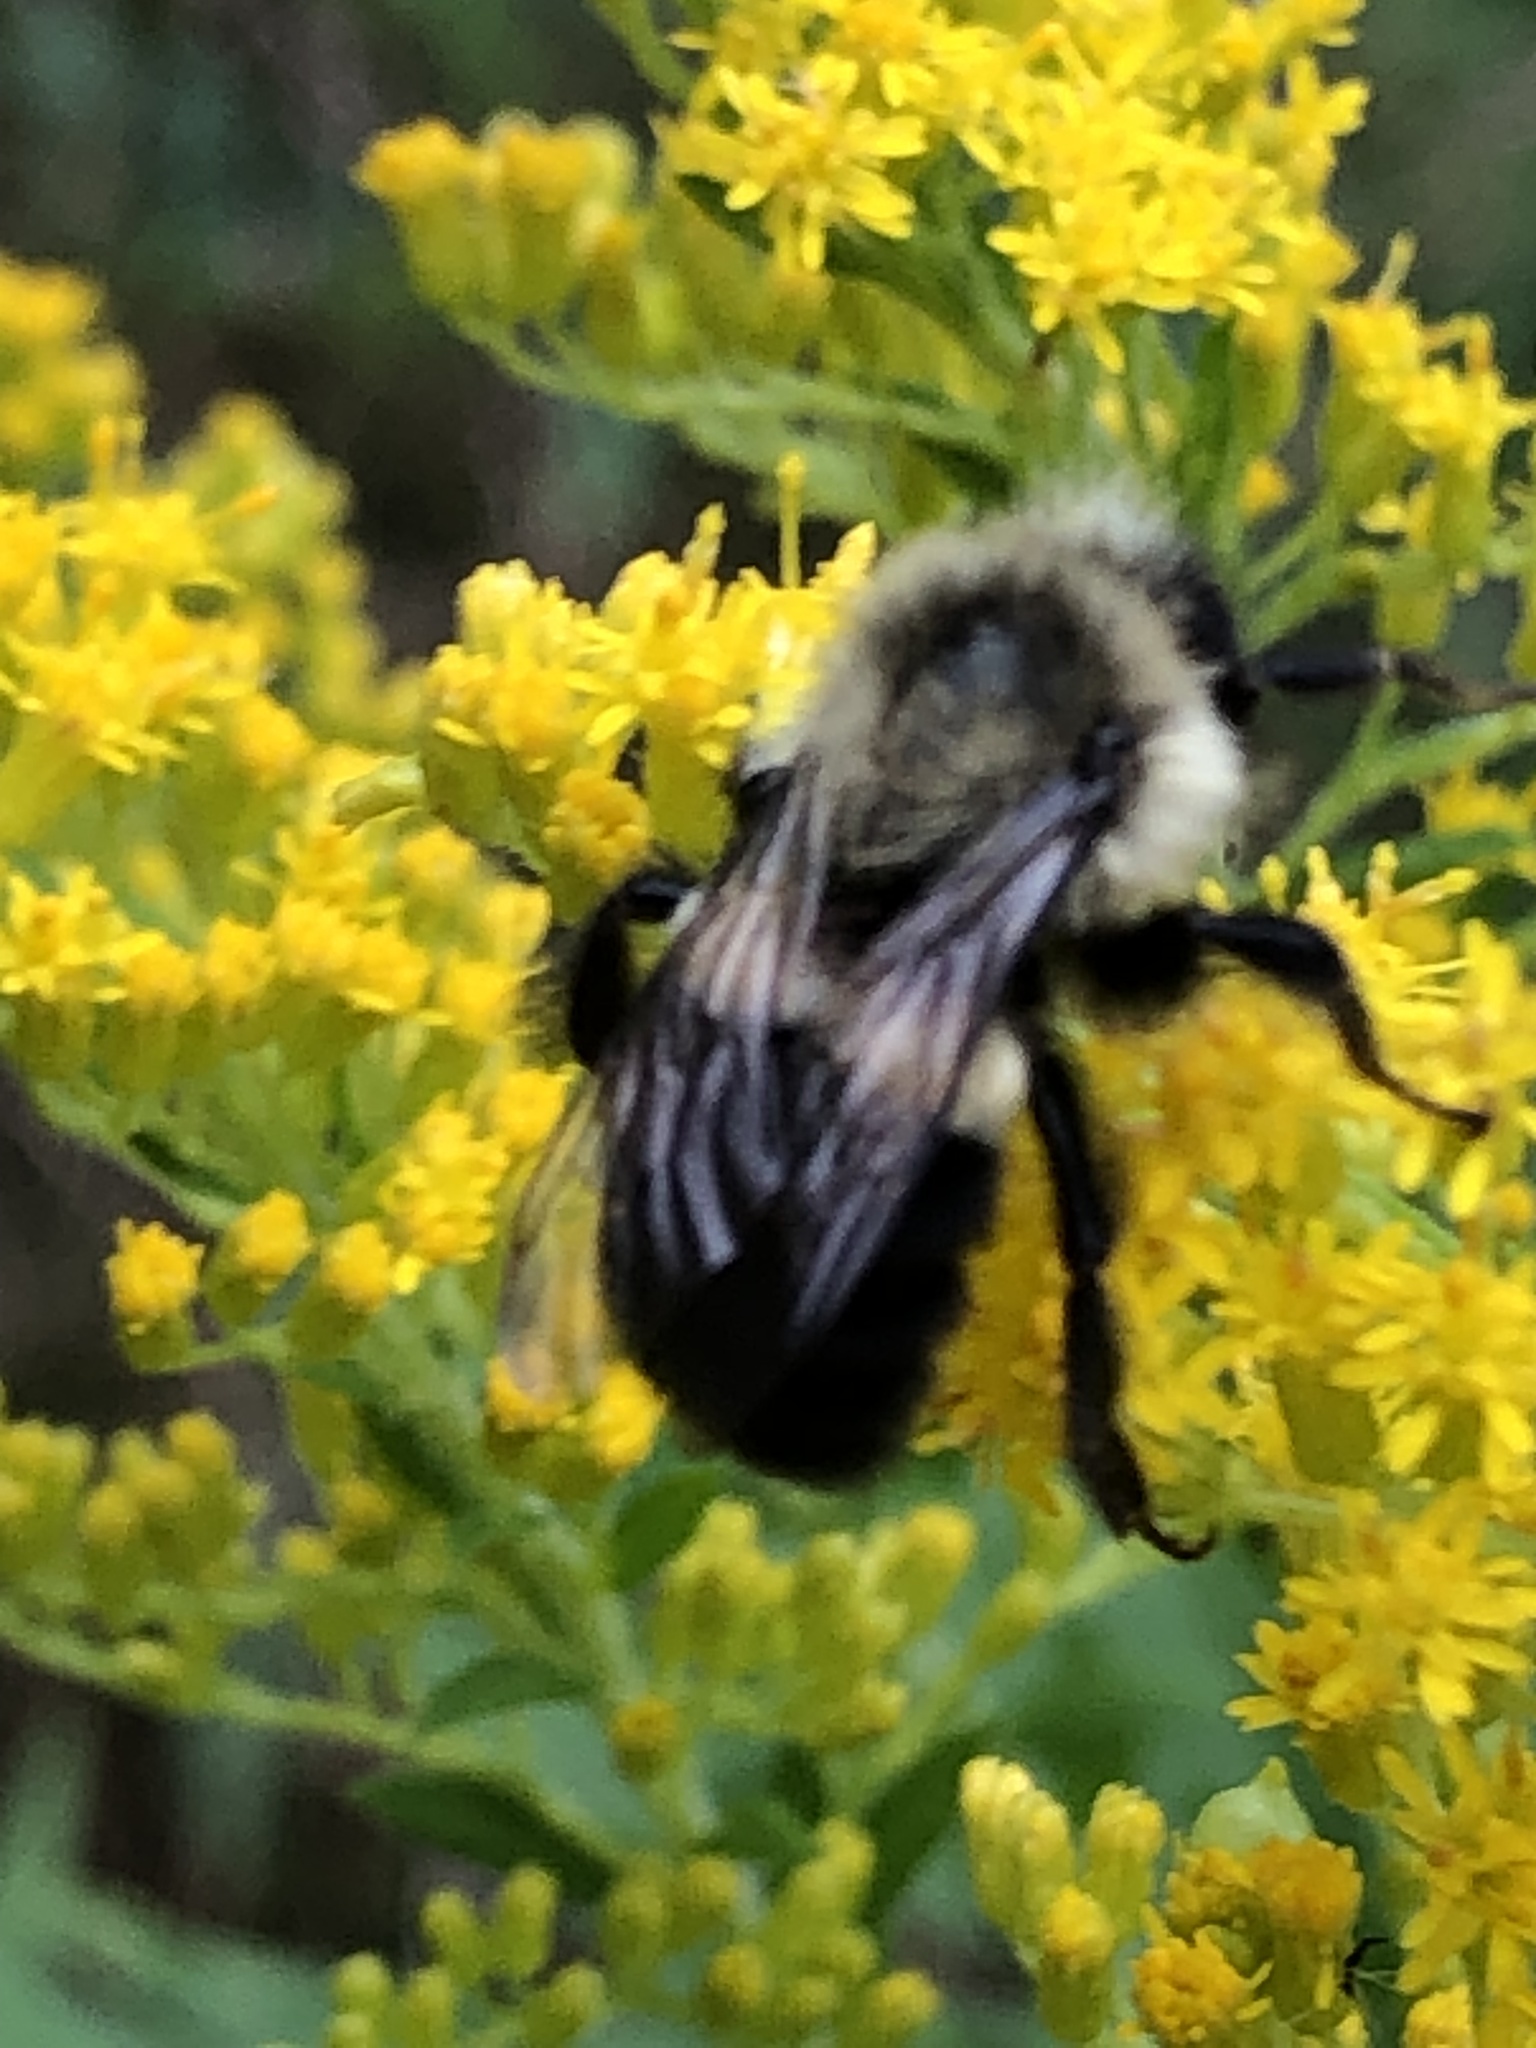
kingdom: Animalia
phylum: Arthropoda
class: Insecta
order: Hymenoptera
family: Apidae
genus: Bombus
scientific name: Bombus impatiens
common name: Common eastern bumble bee
